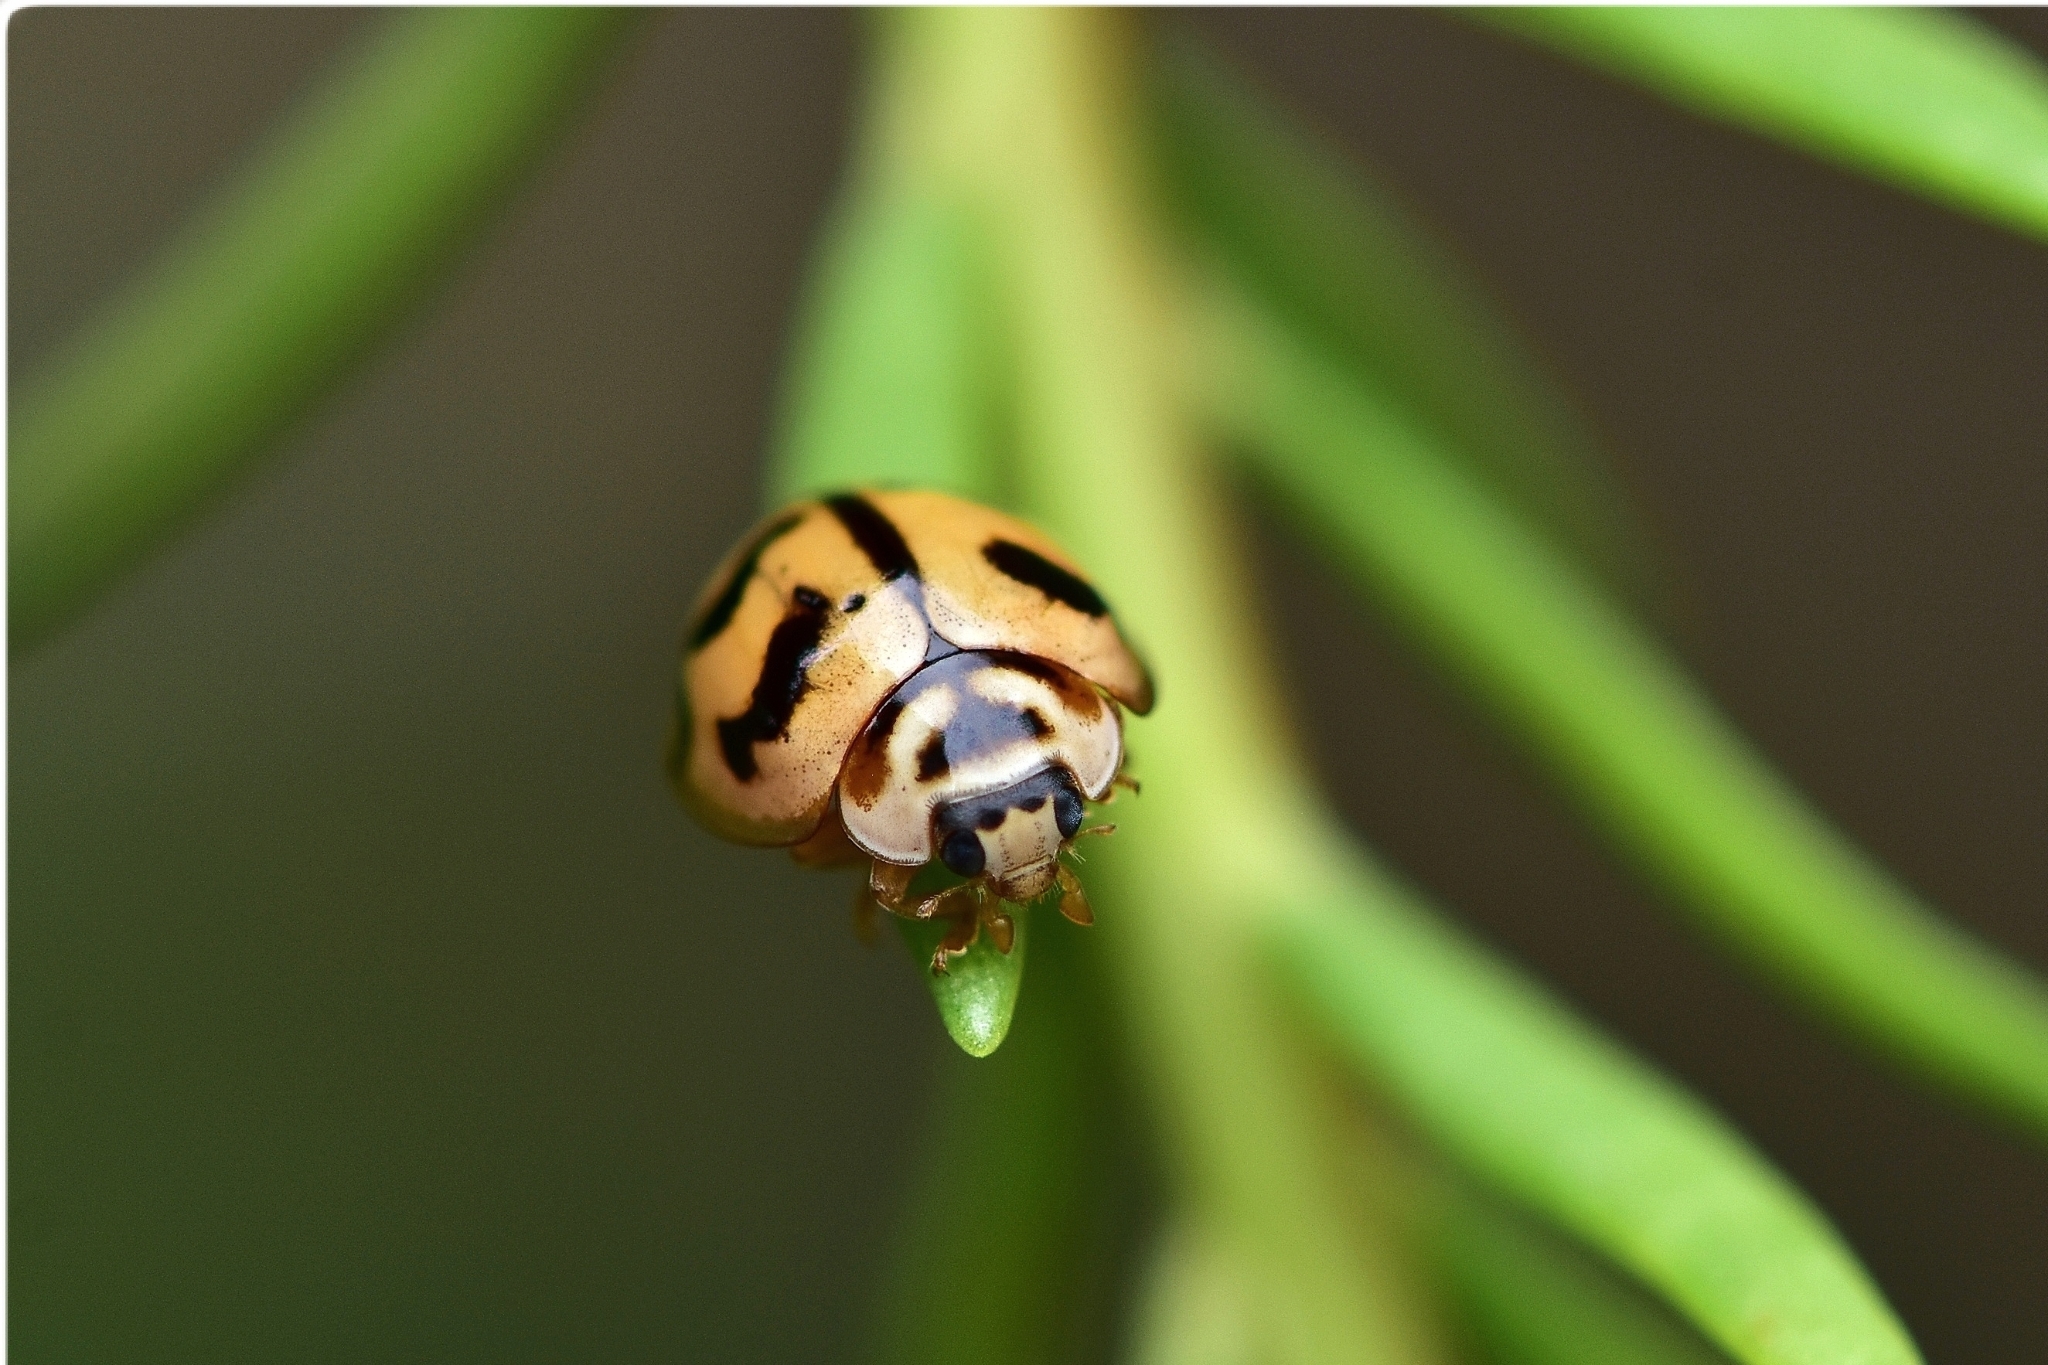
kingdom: Animalia
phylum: Arthropoda
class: Insecta
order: Coleoptera
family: Coccinellidae
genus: Cheilomenes
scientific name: Cheilomenes sexmaculata
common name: Ladybird beetle
